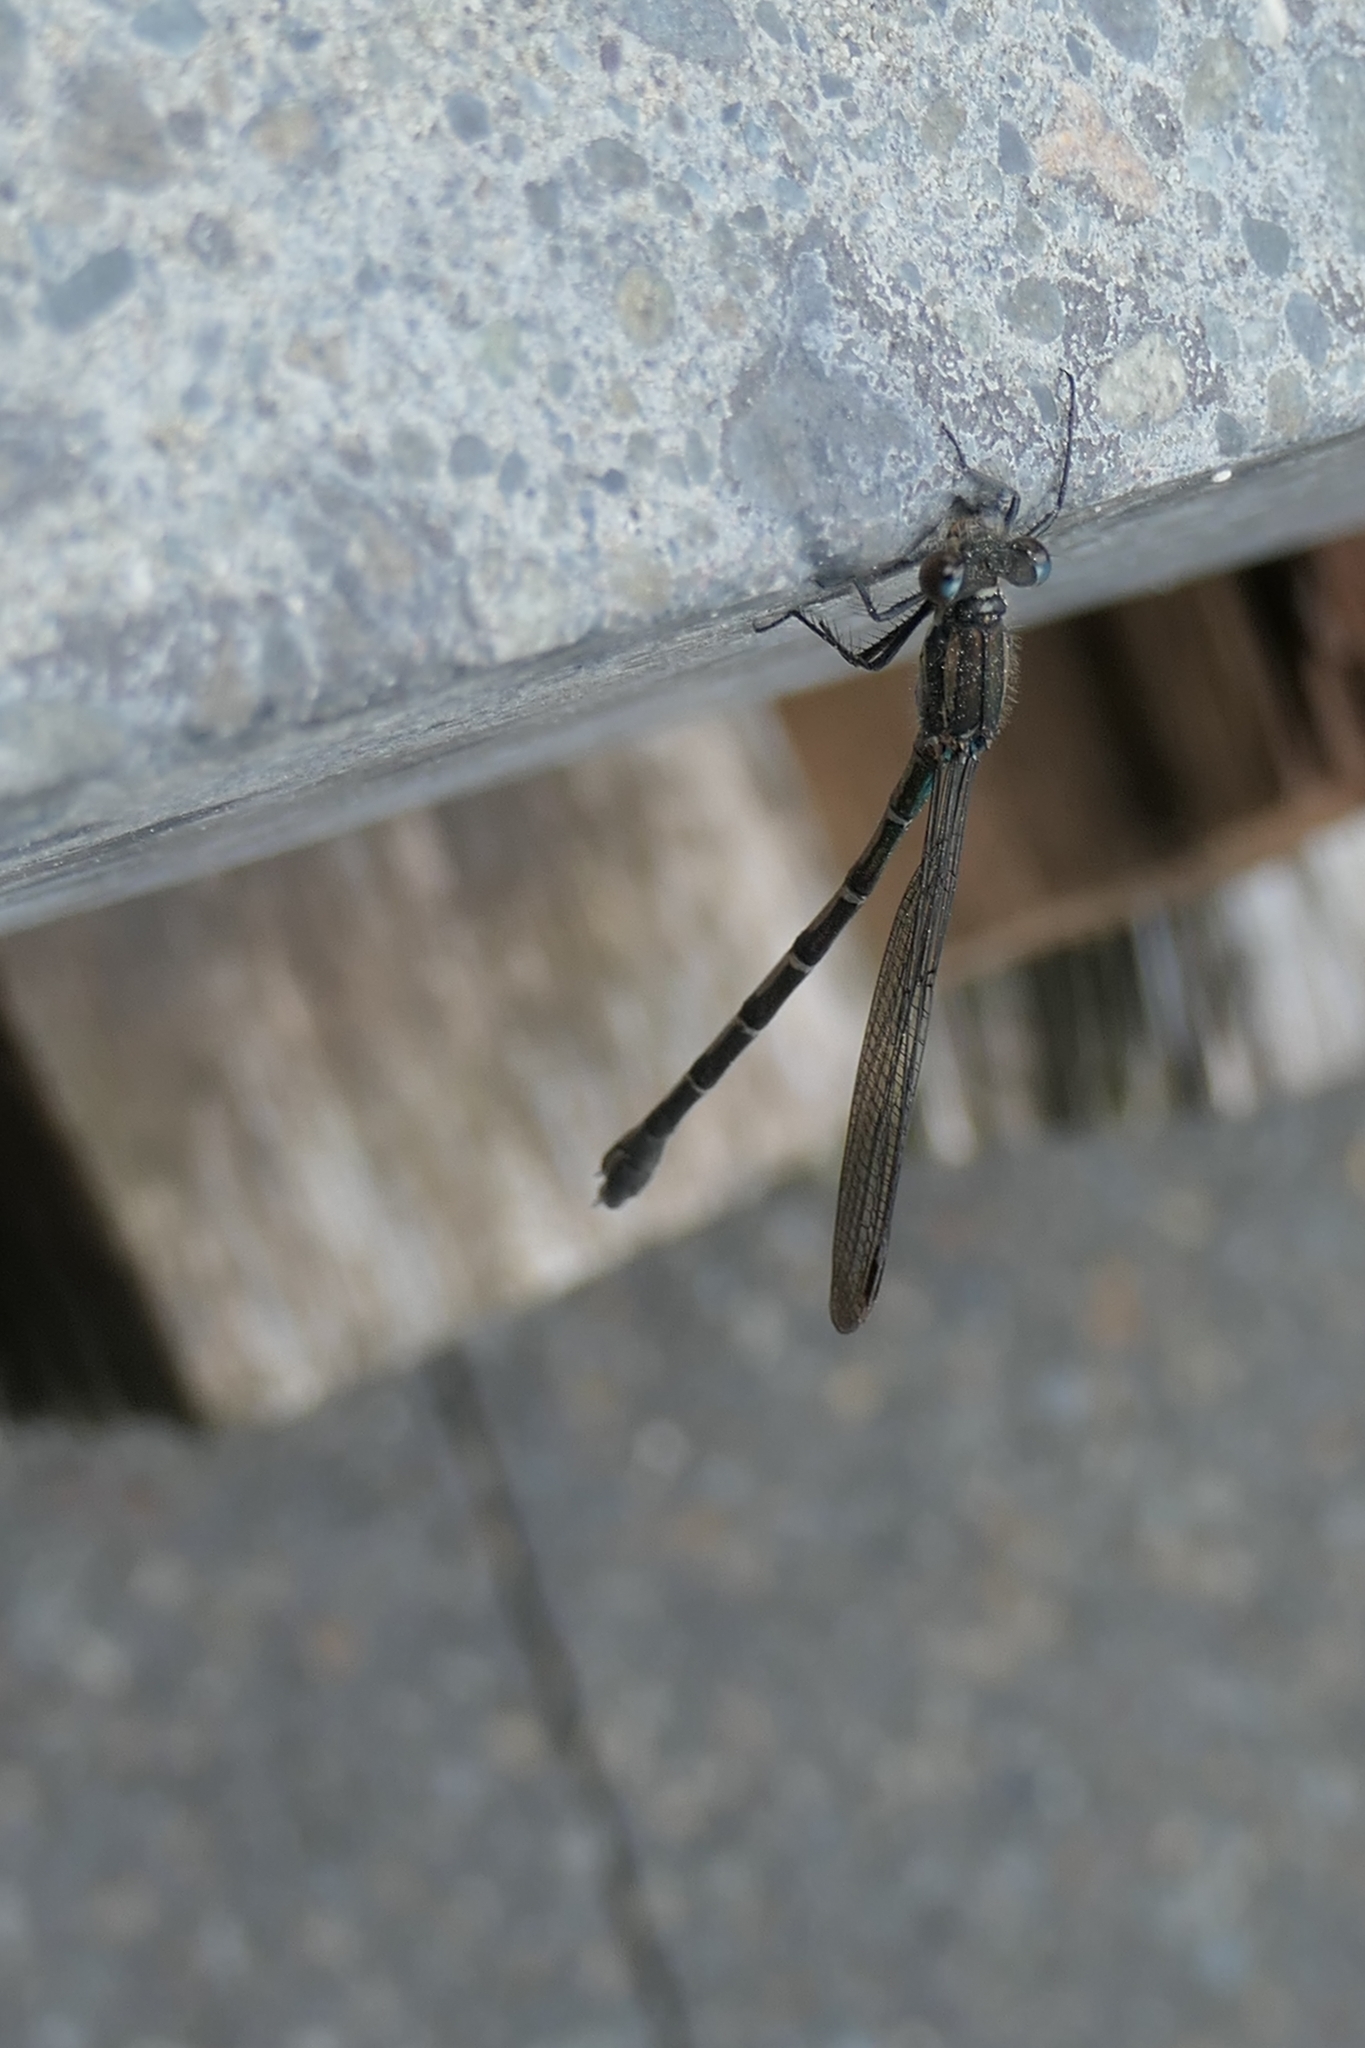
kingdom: Animalia
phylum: Arthropoda
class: Insecta
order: Odonata
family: Lestidae
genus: Austrolestes
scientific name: Austrolestes colensonis
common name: Blue damselfly
